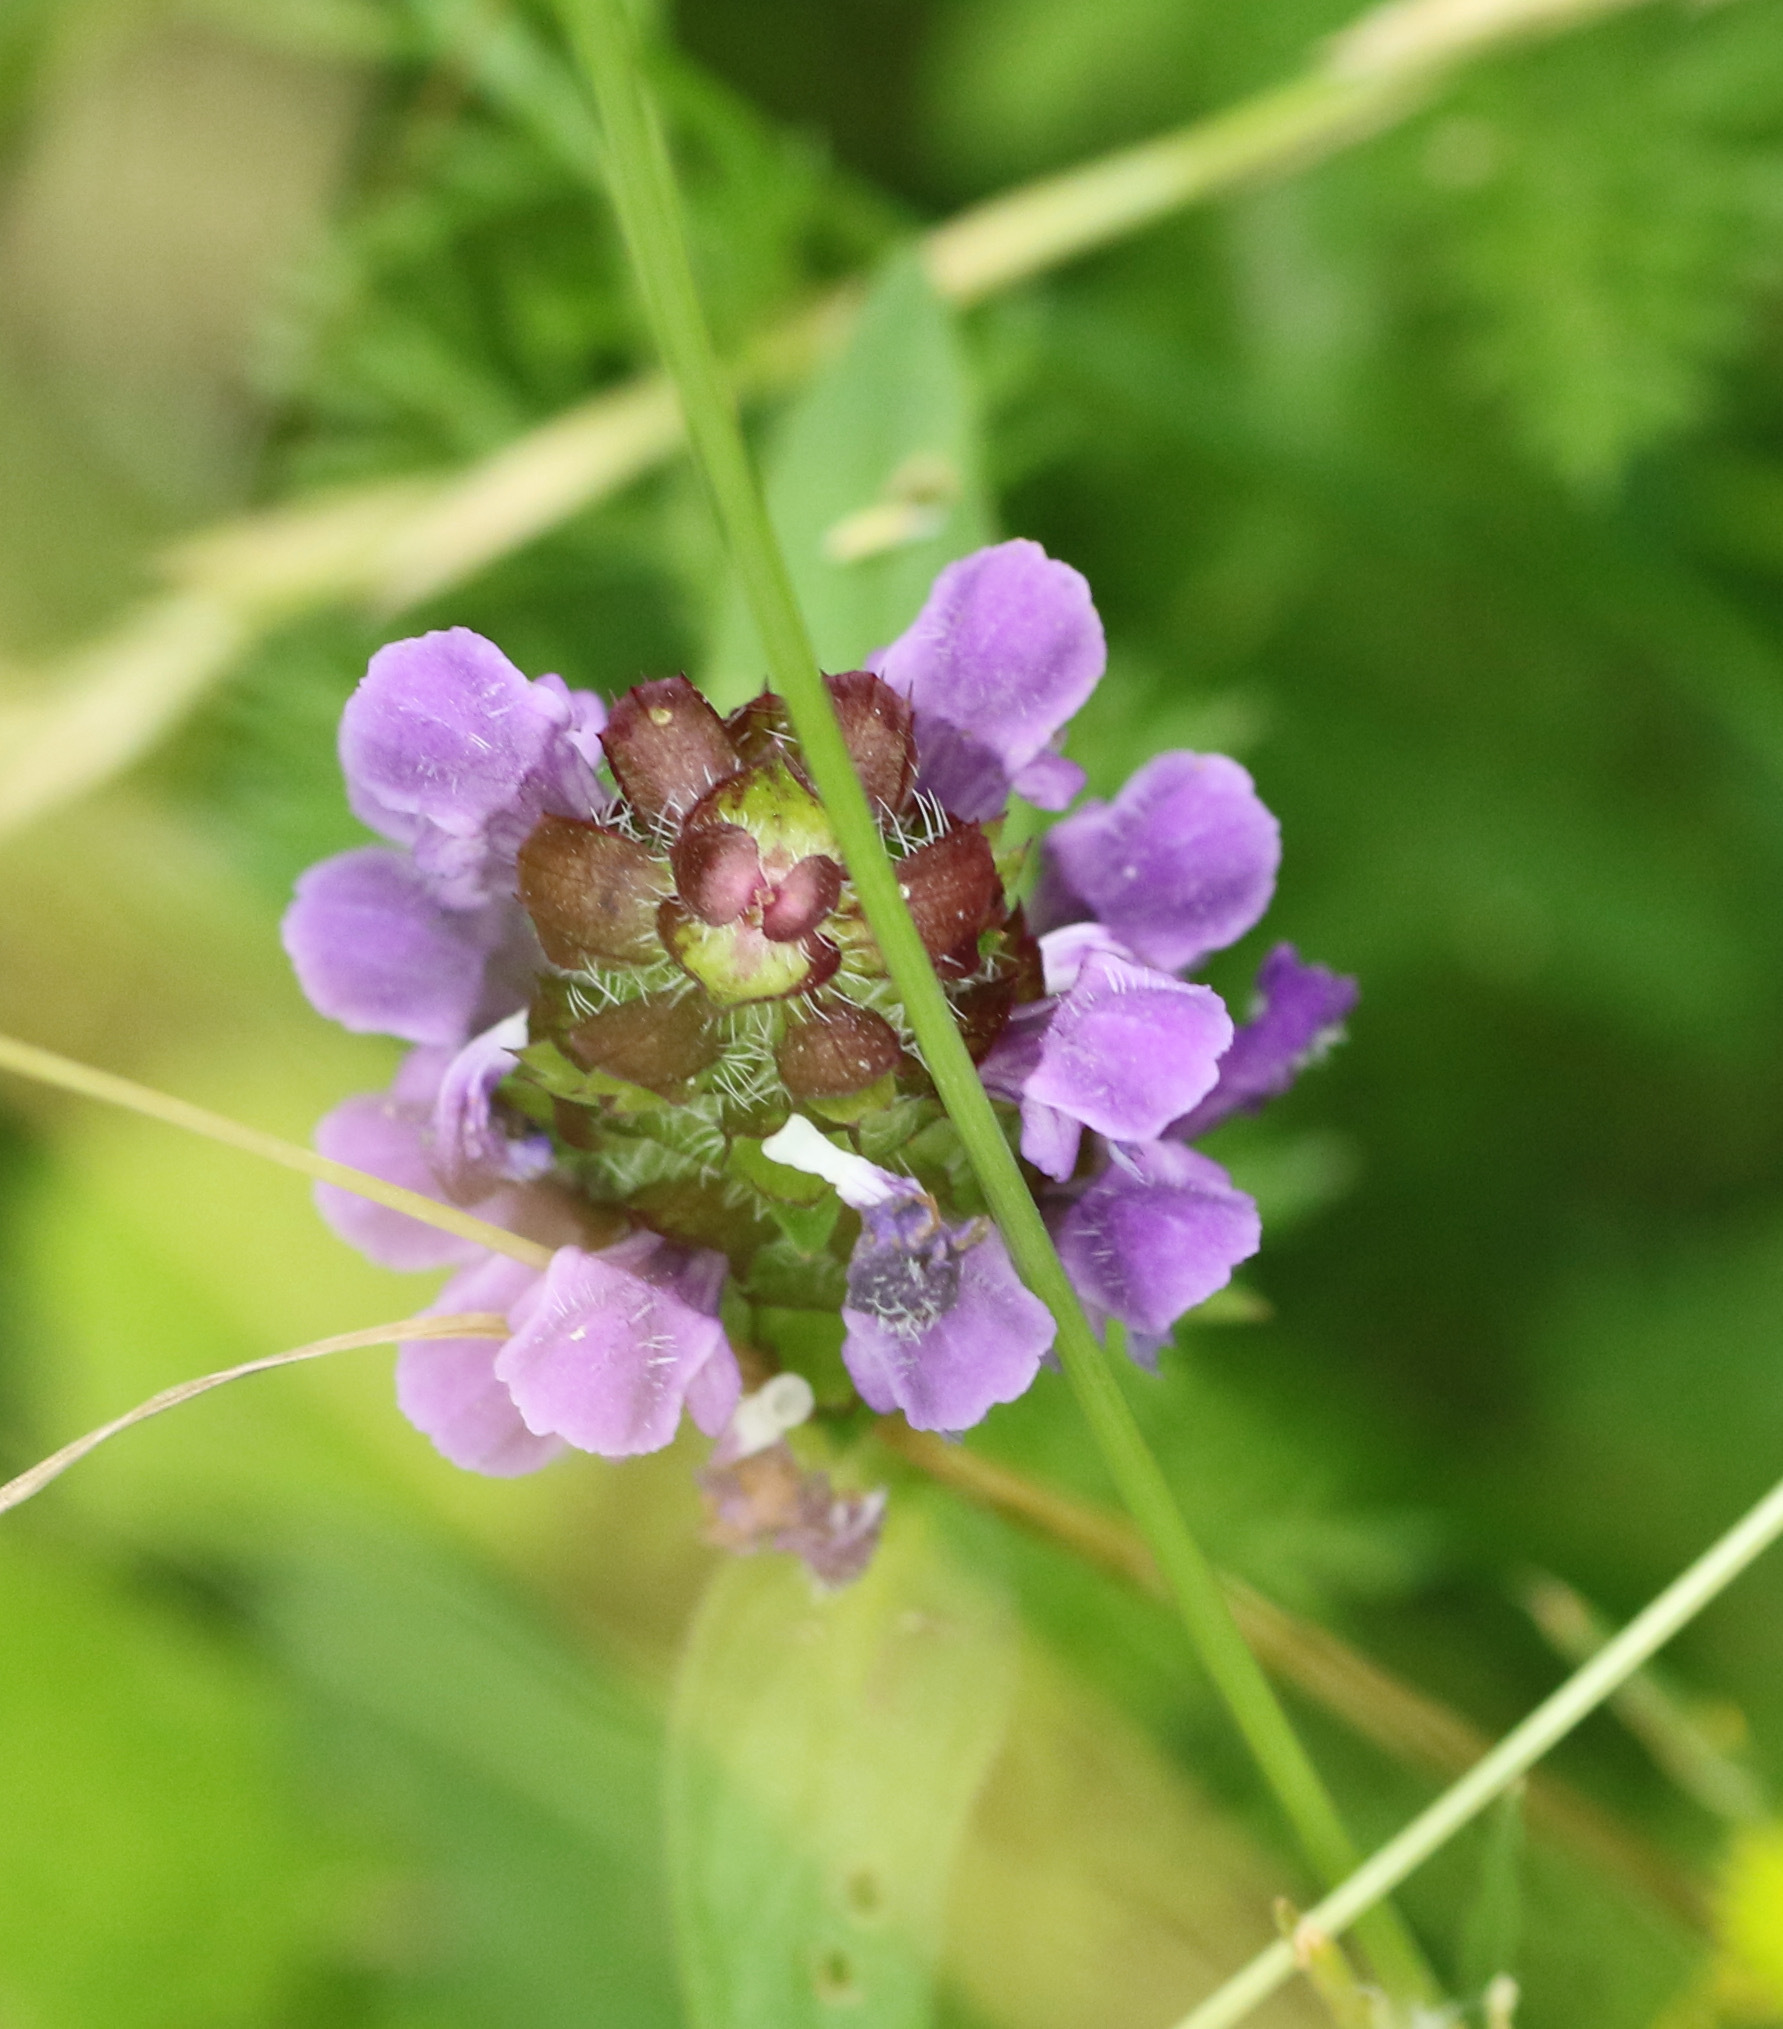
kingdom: Plantae
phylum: Tracheophyta
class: Magnoliopsida
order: Lamiales
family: Lamiaceae
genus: Prunella
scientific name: Prunella vulgaris
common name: Heal-all
